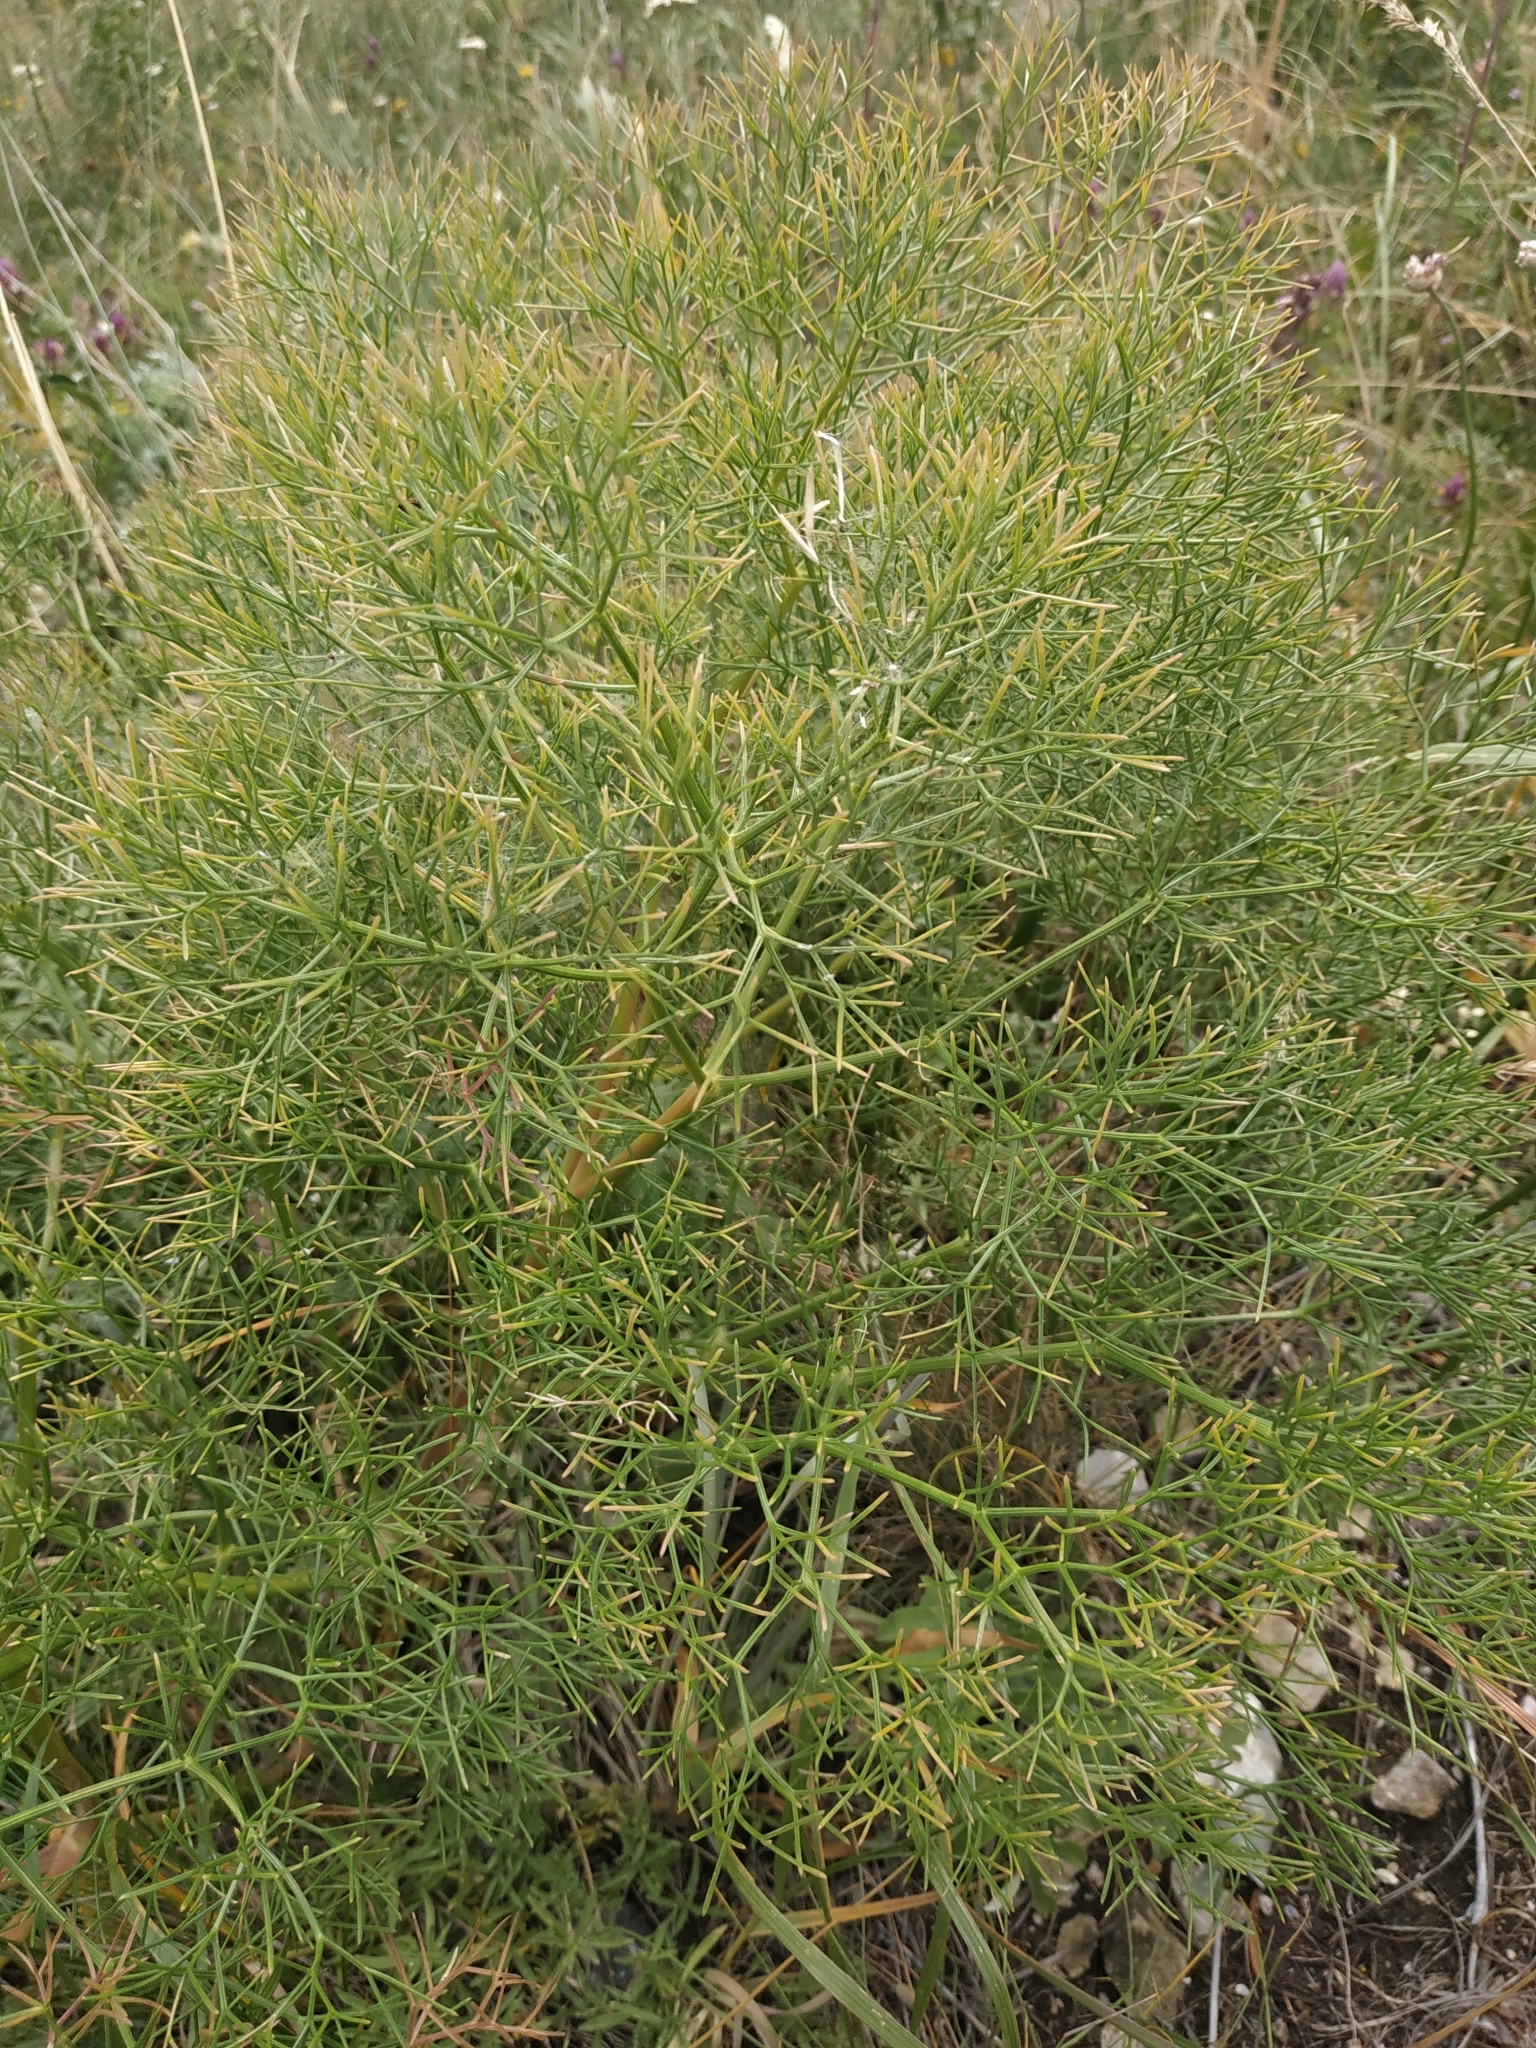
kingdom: Plantae
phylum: Tracheophyta
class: Magnoliopsida
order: Apiales
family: Apiaceae
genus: Bilacunaria
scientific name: Bilacunaria microcarpa
